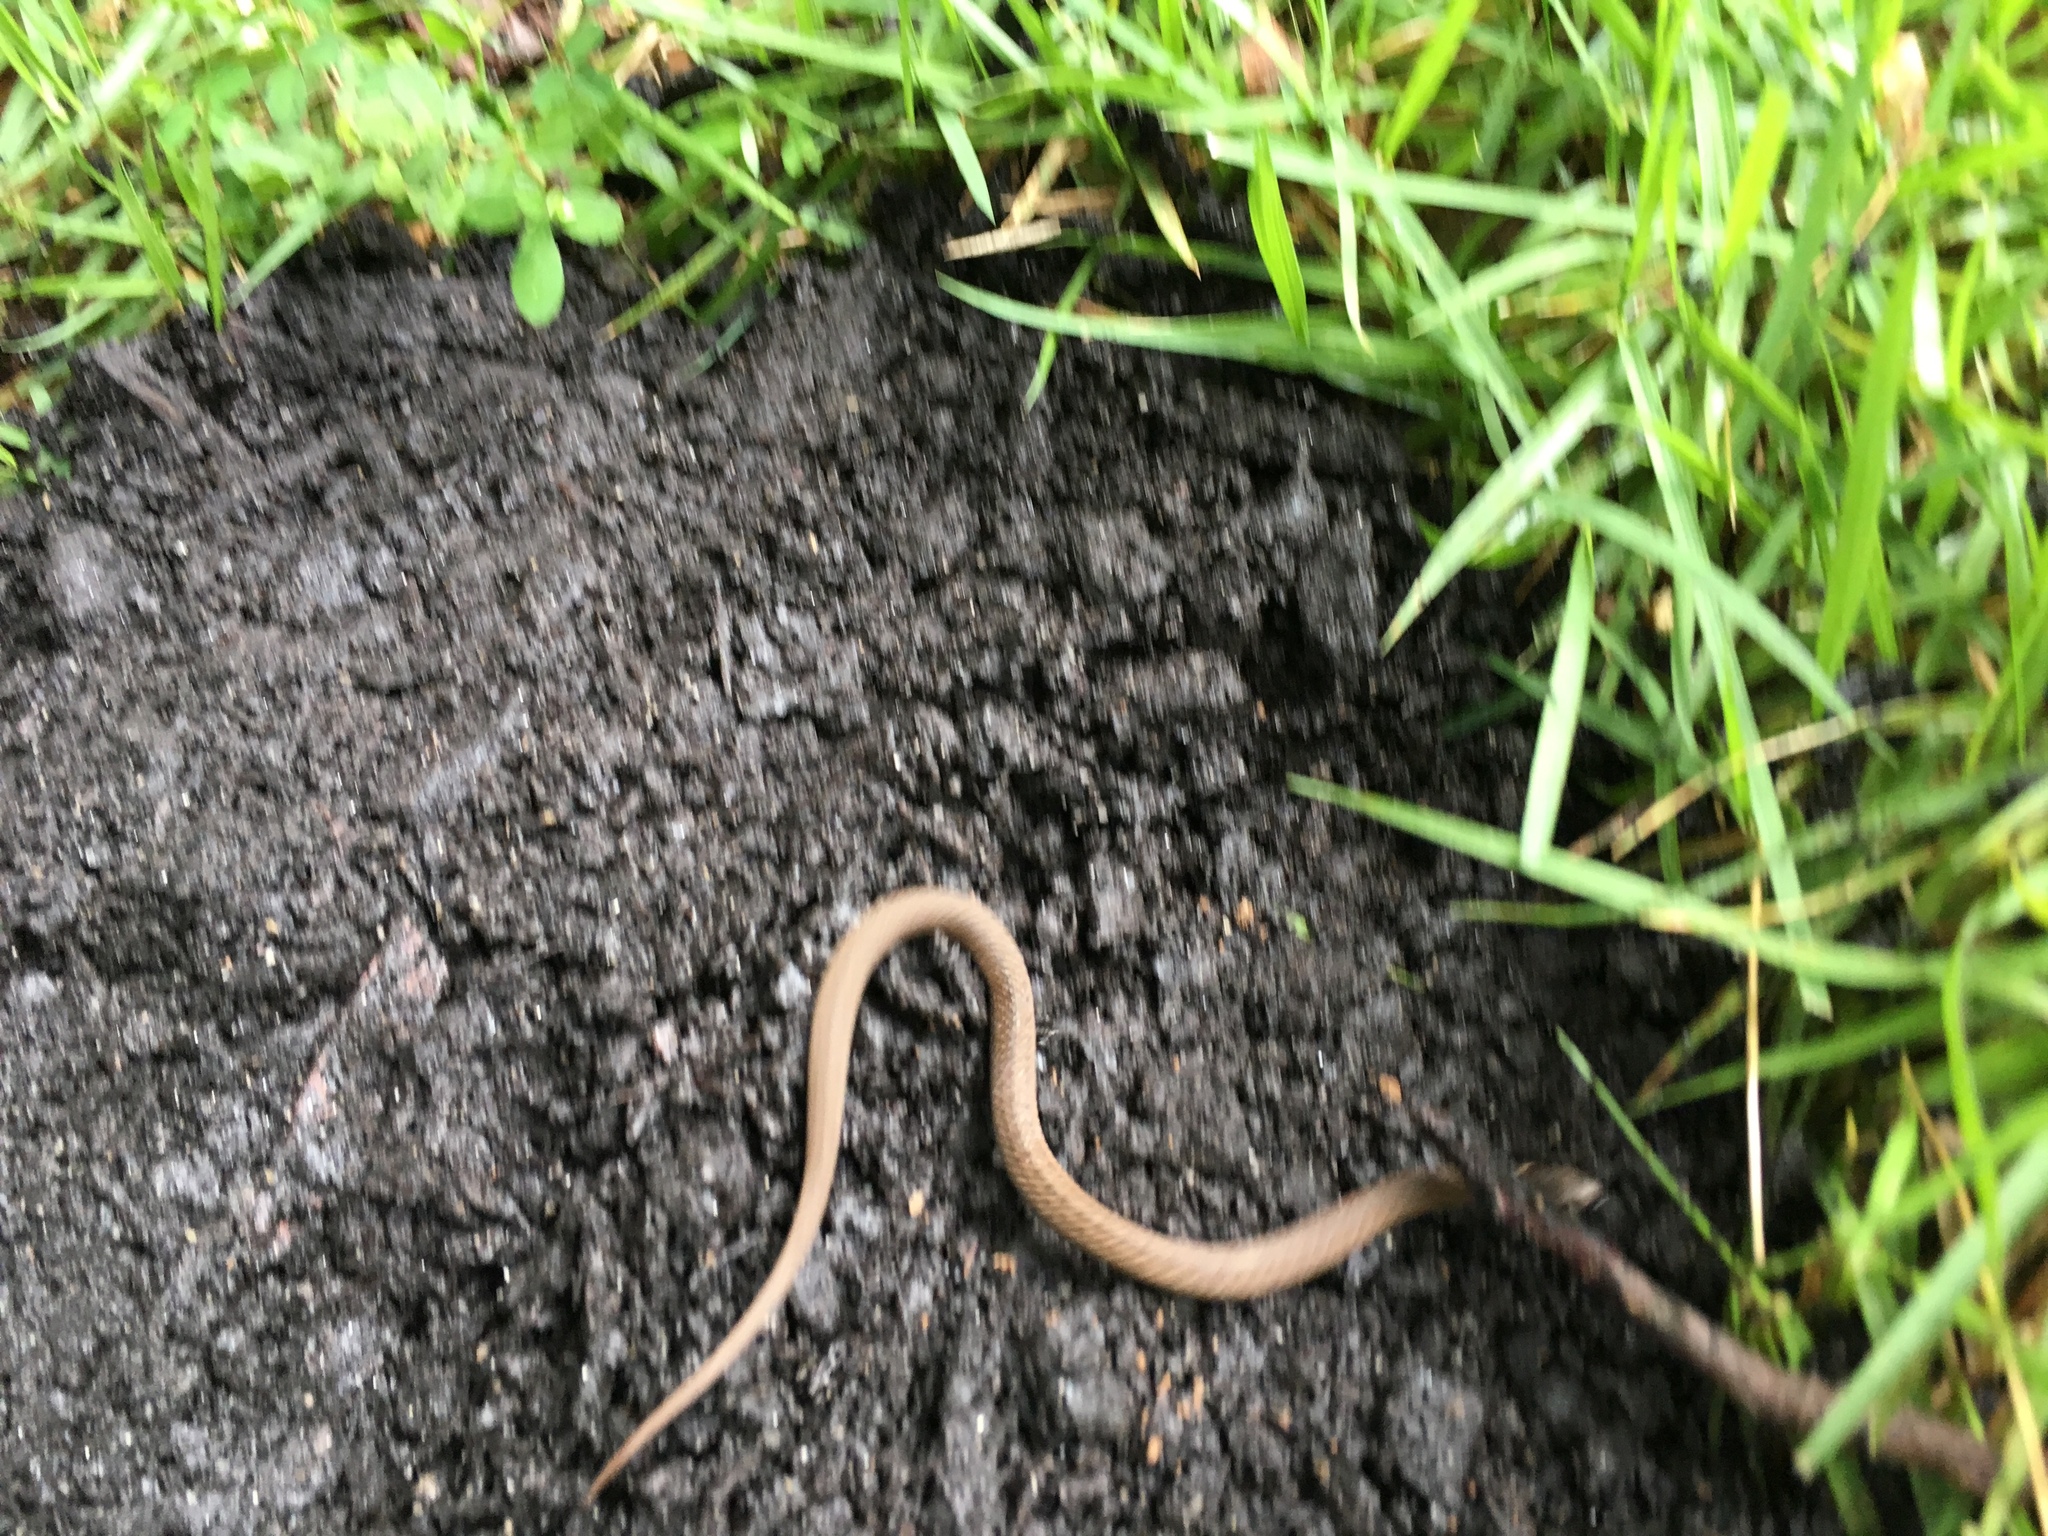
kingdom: Animalia
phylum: Chordata
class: Squamata
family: Colubridae
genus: Storeria
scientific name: Storeria dekayi
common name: (dekay’s) brown snake
